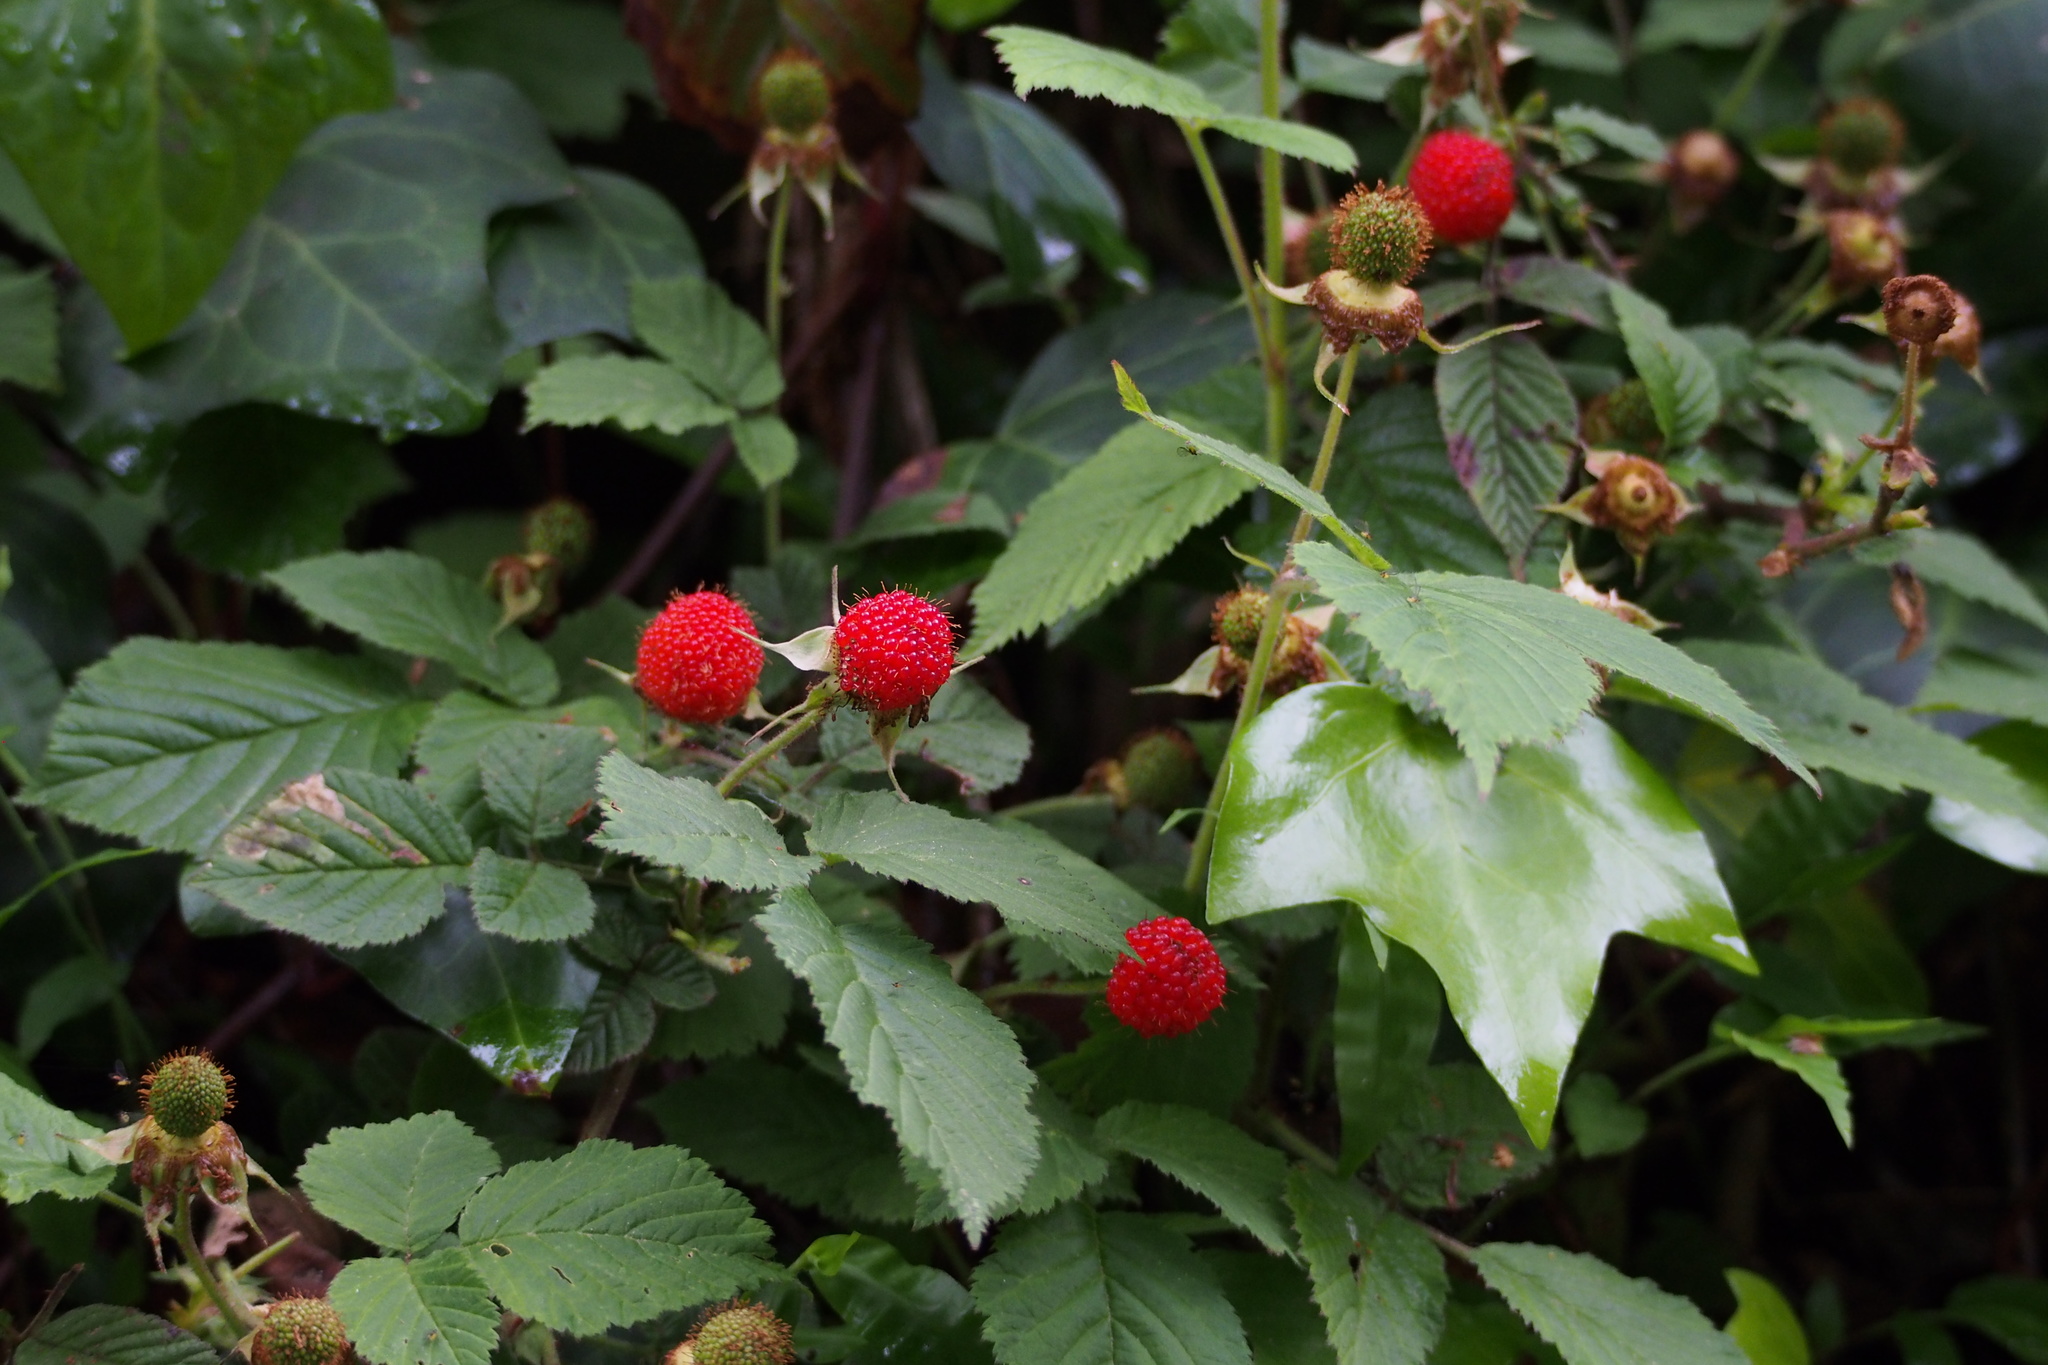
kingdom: Plantae
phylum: Tracheophyta
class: Magnoliopsida
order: Rosales
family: Rosaceae
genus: Rubus
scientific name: Rubus hirsutus
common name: Hirsute raspberry
